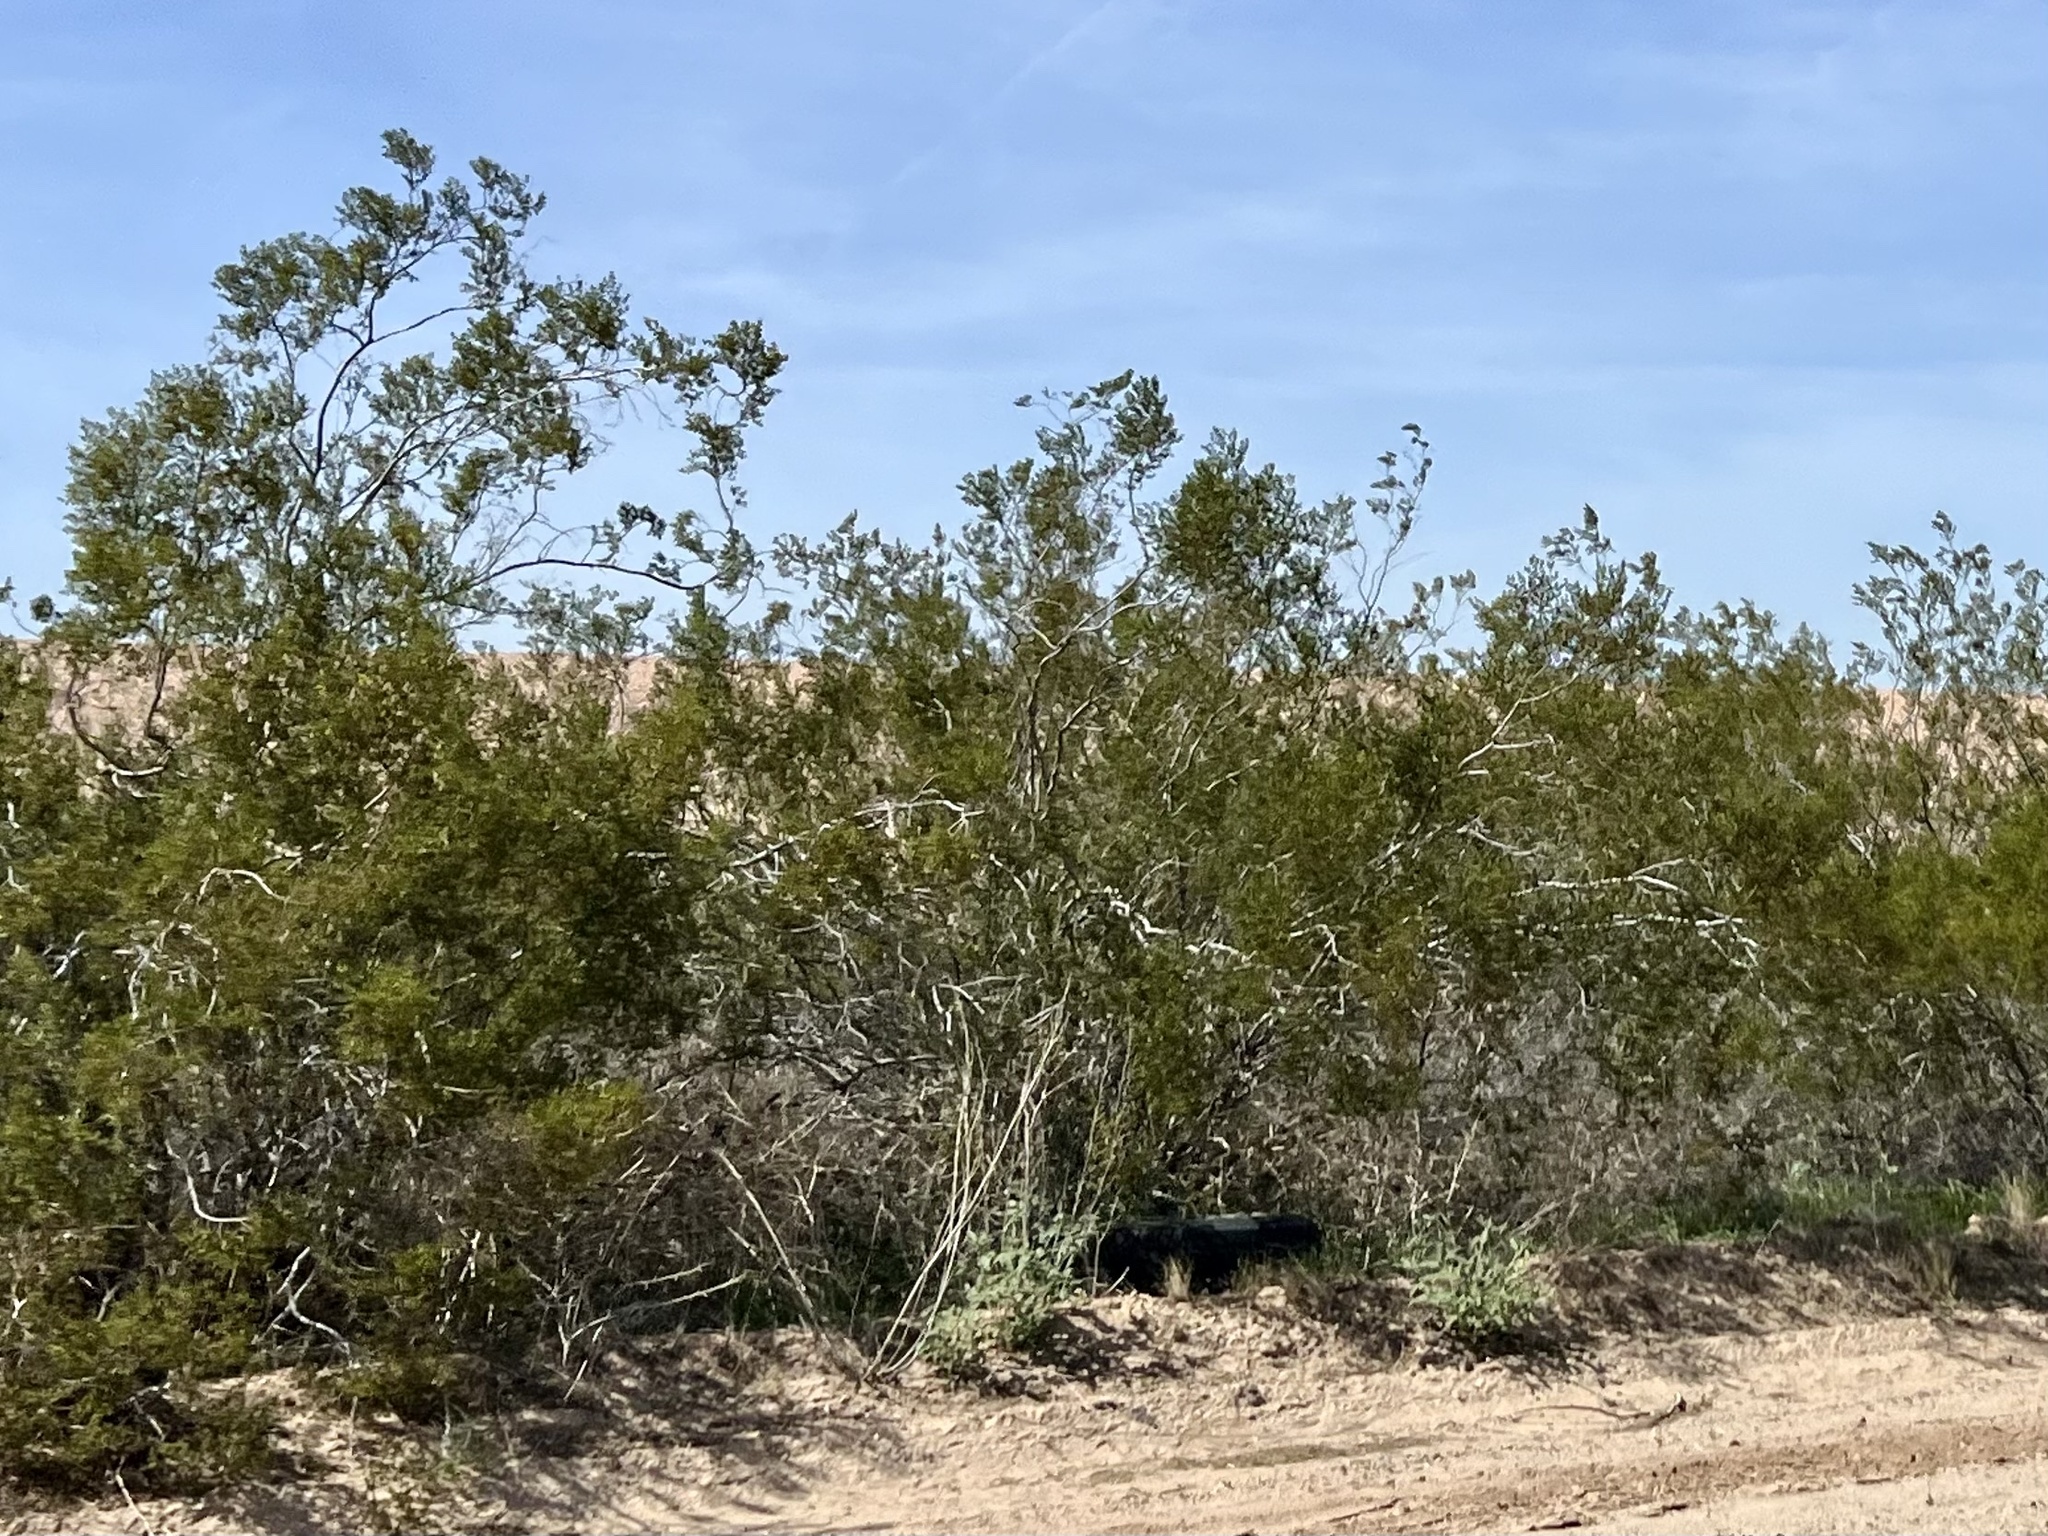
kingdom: Plantae
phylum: Tracheophyta
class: Magnoliopsida
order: Zygophyllales
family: Zygophyllaceae
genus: Larrea
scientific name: Larrea tridentata
